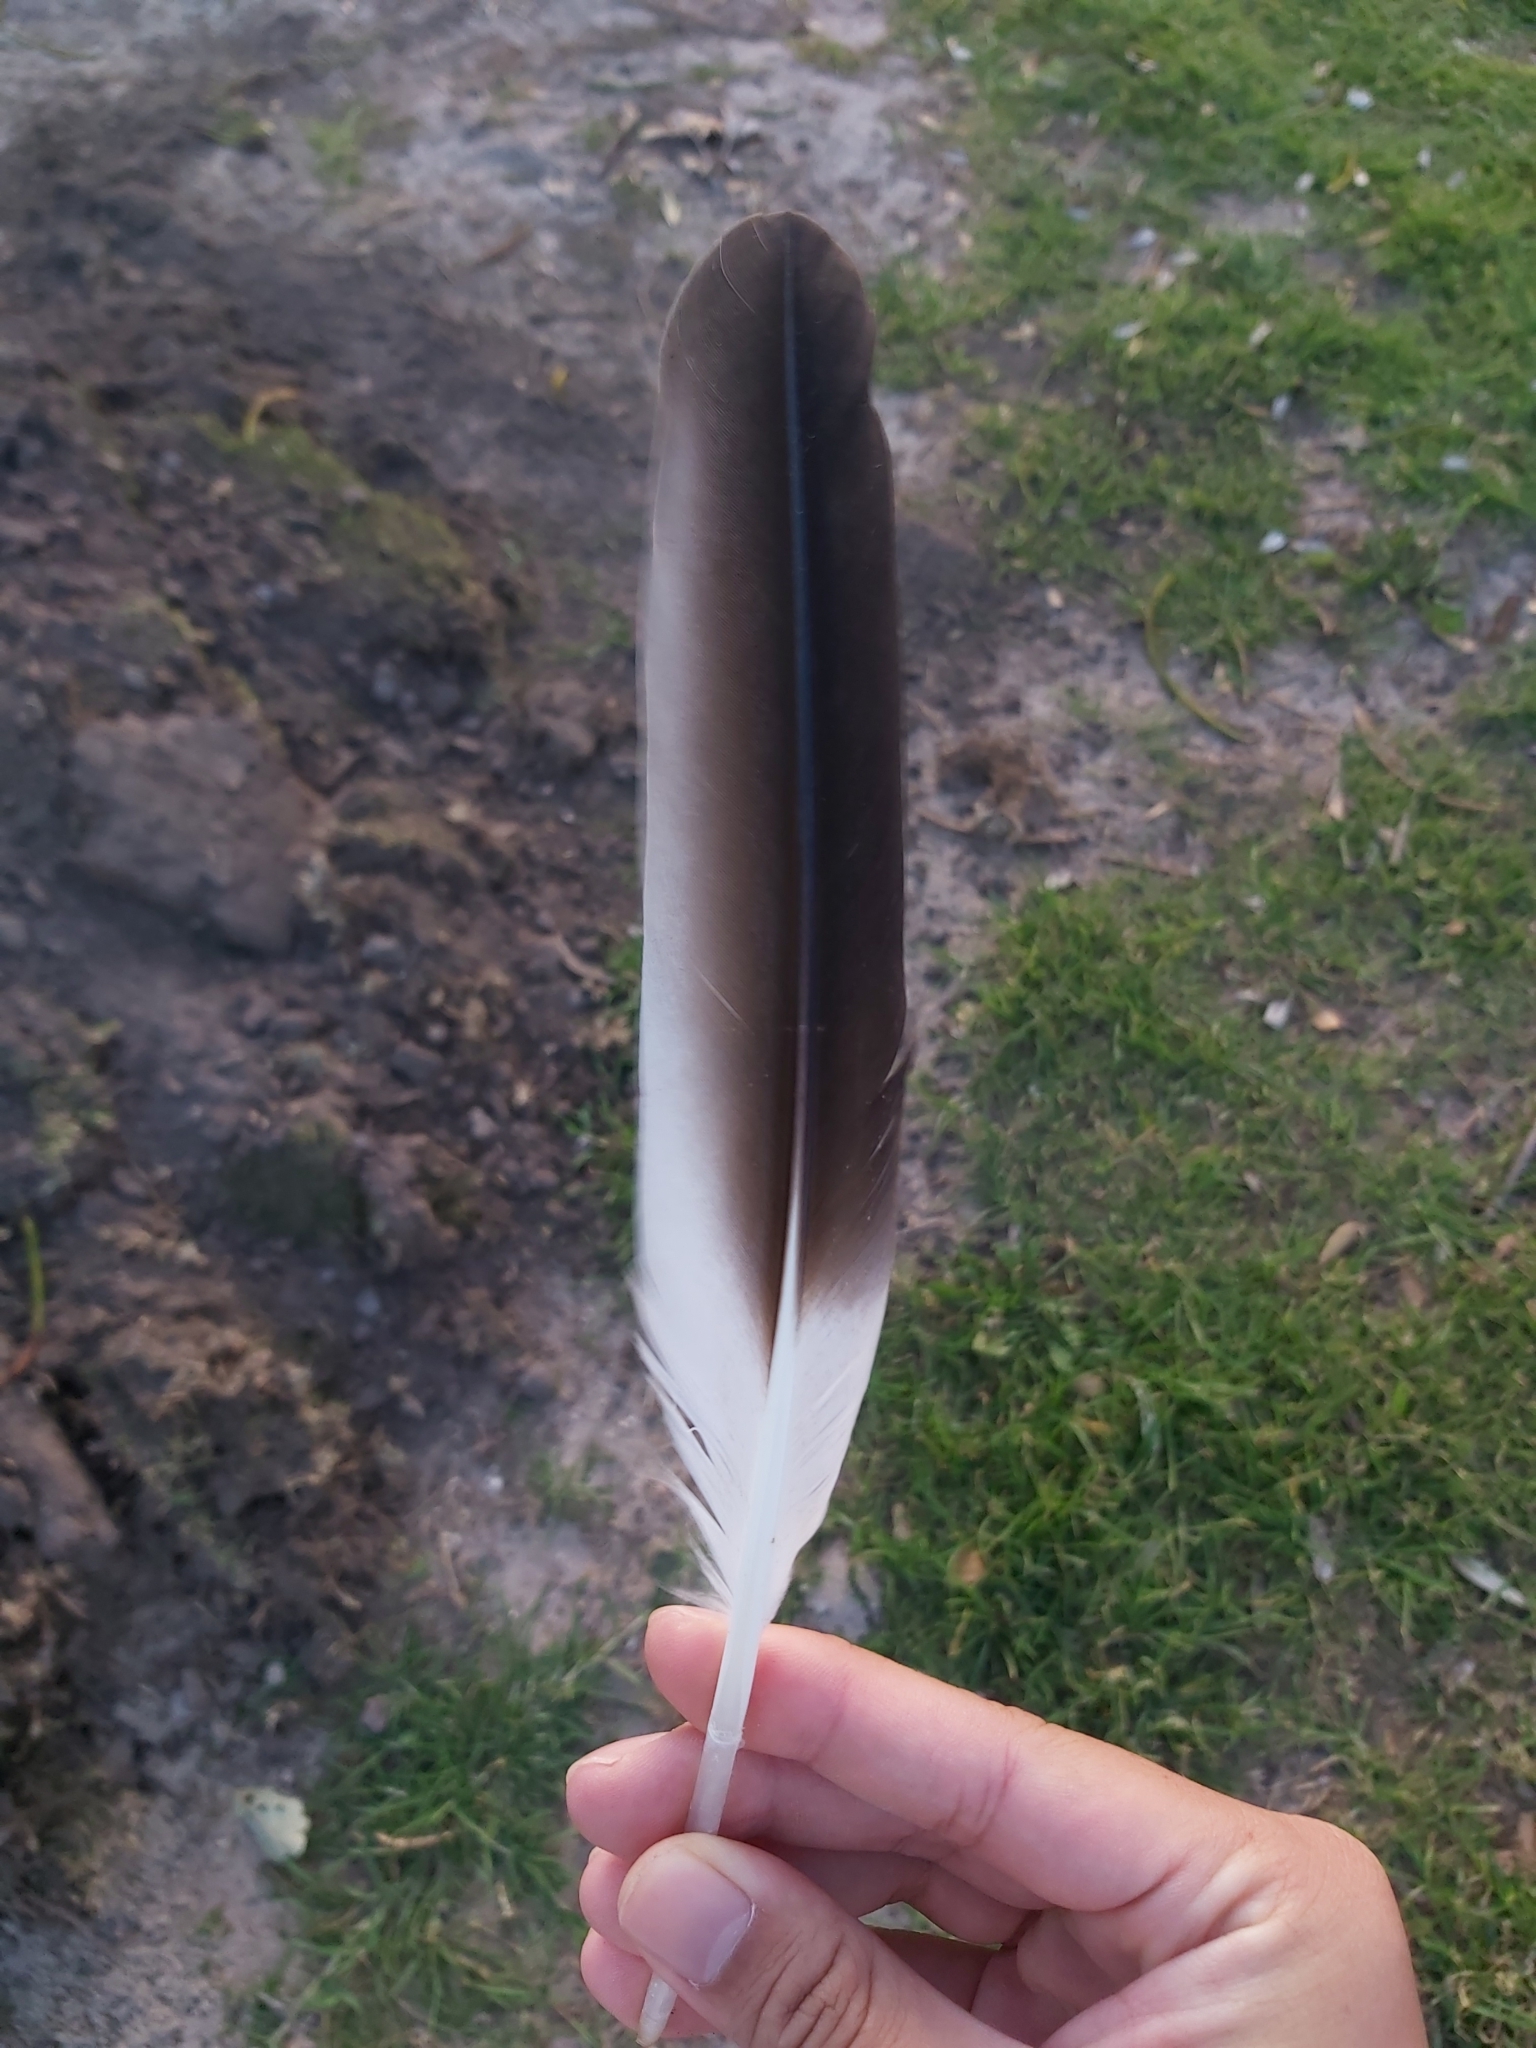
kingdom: Animalia
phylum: Chordata
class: Aves
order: Pelecaniformes
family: Pelecanidae
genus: Pelecanus
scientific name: Pelecanus conspicillatus
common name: Australian pelican
